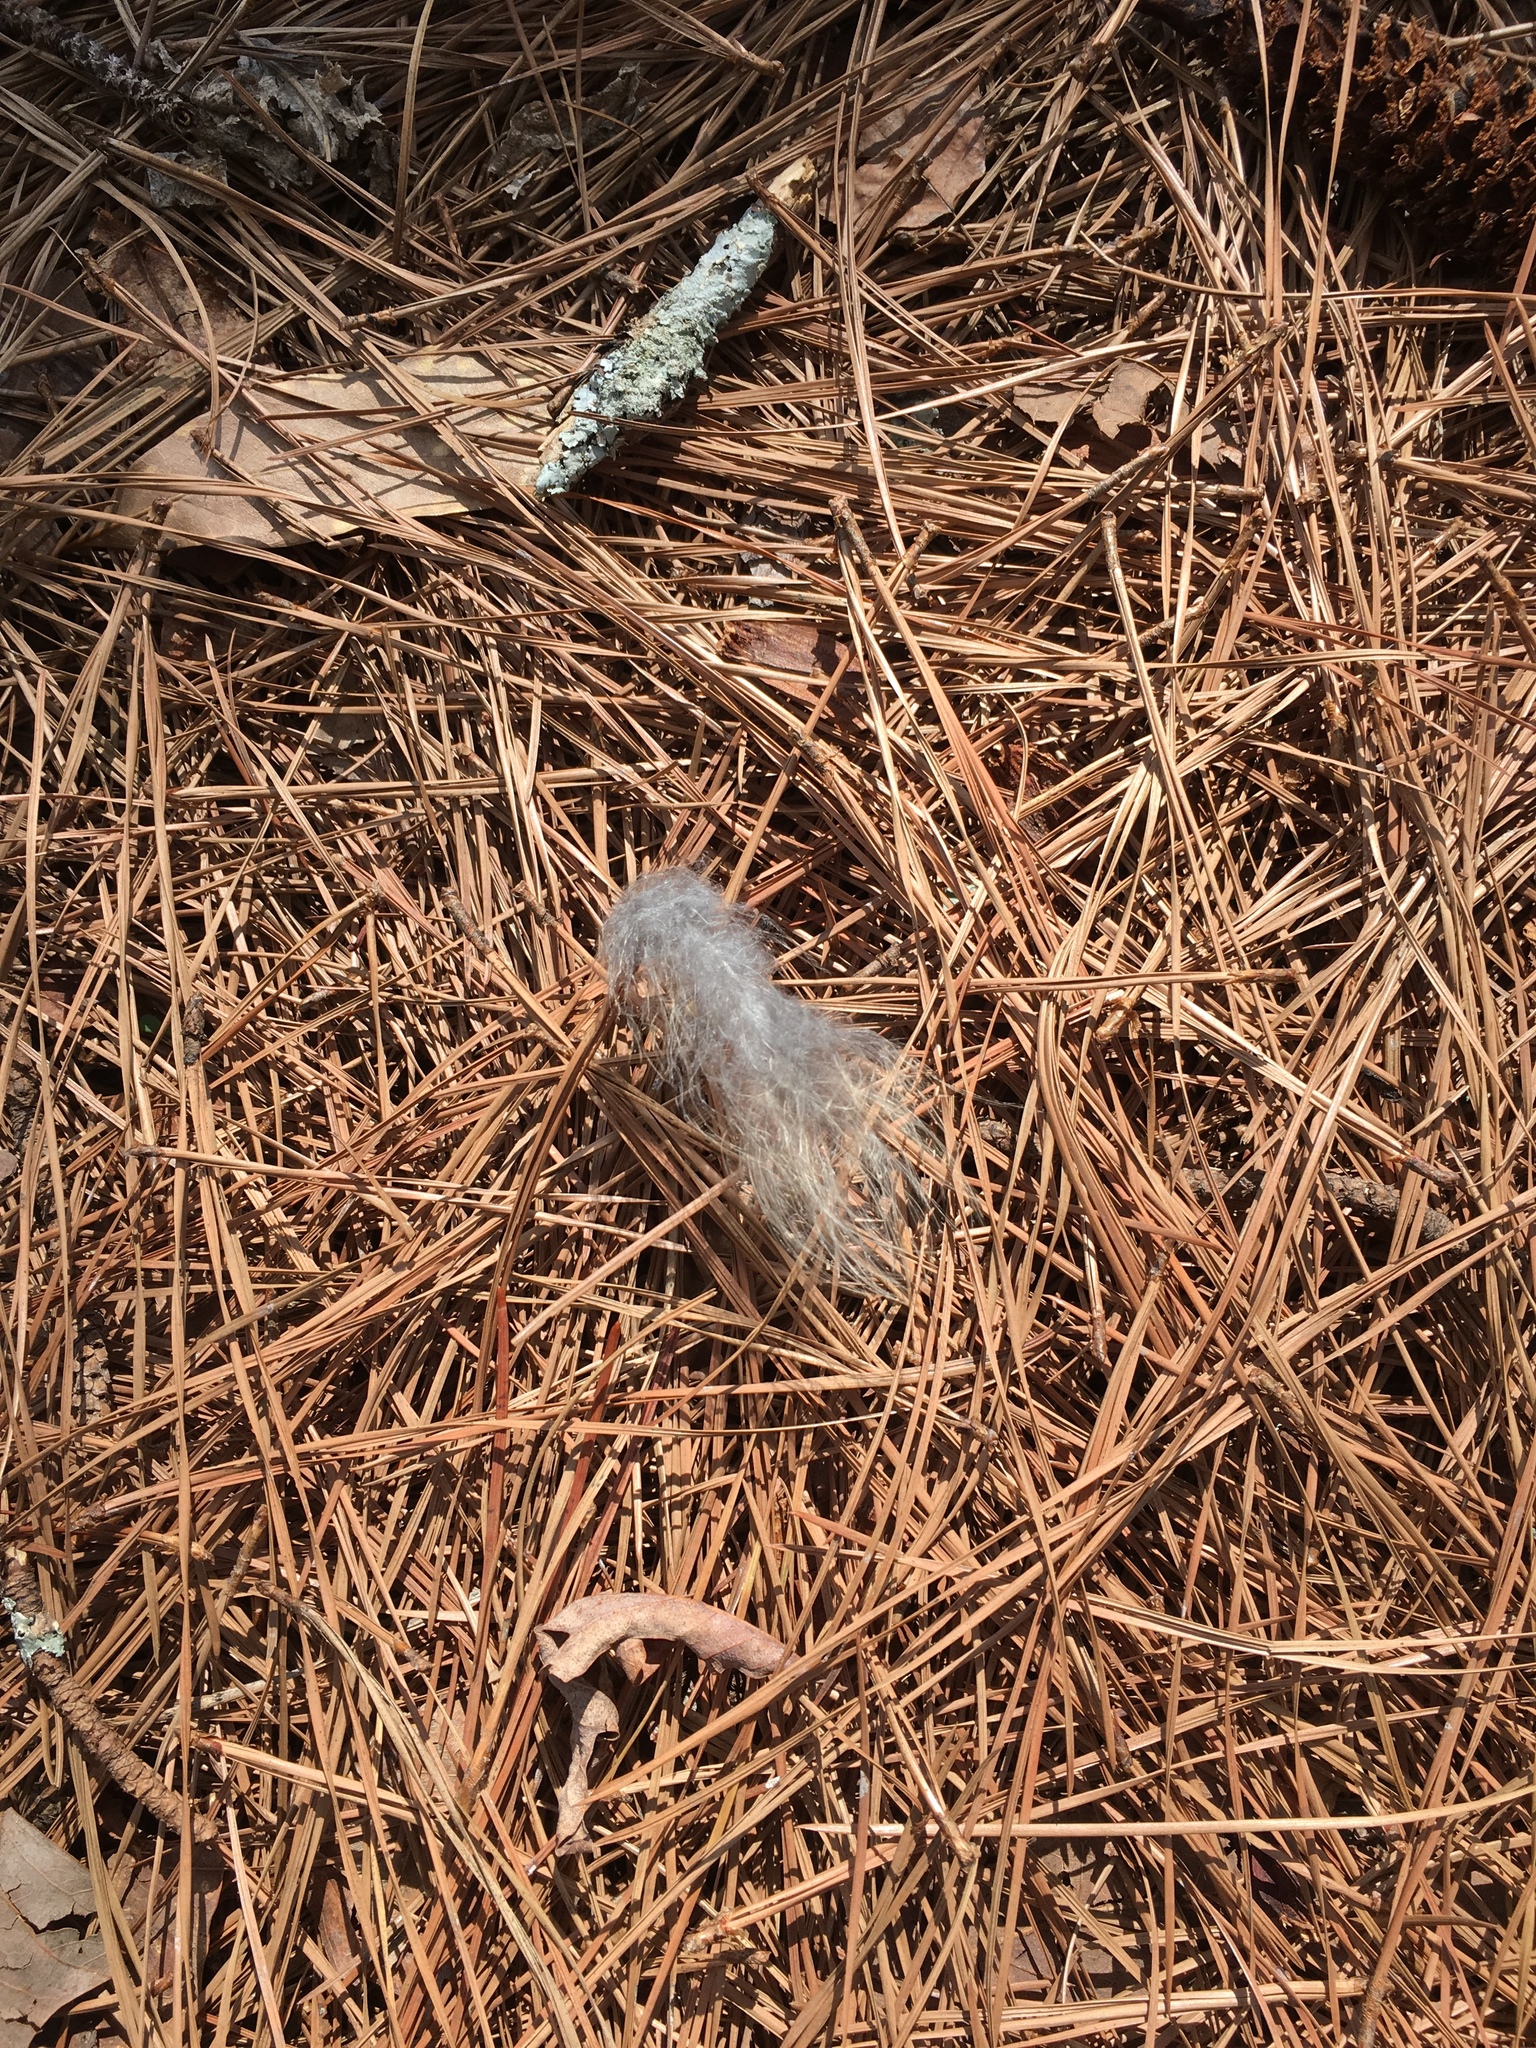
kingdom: Animalia
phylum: Chordata
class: Aves
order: Strigiformes
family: Strigidae
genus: Strix
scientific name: Strix varia
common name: Barred owl
